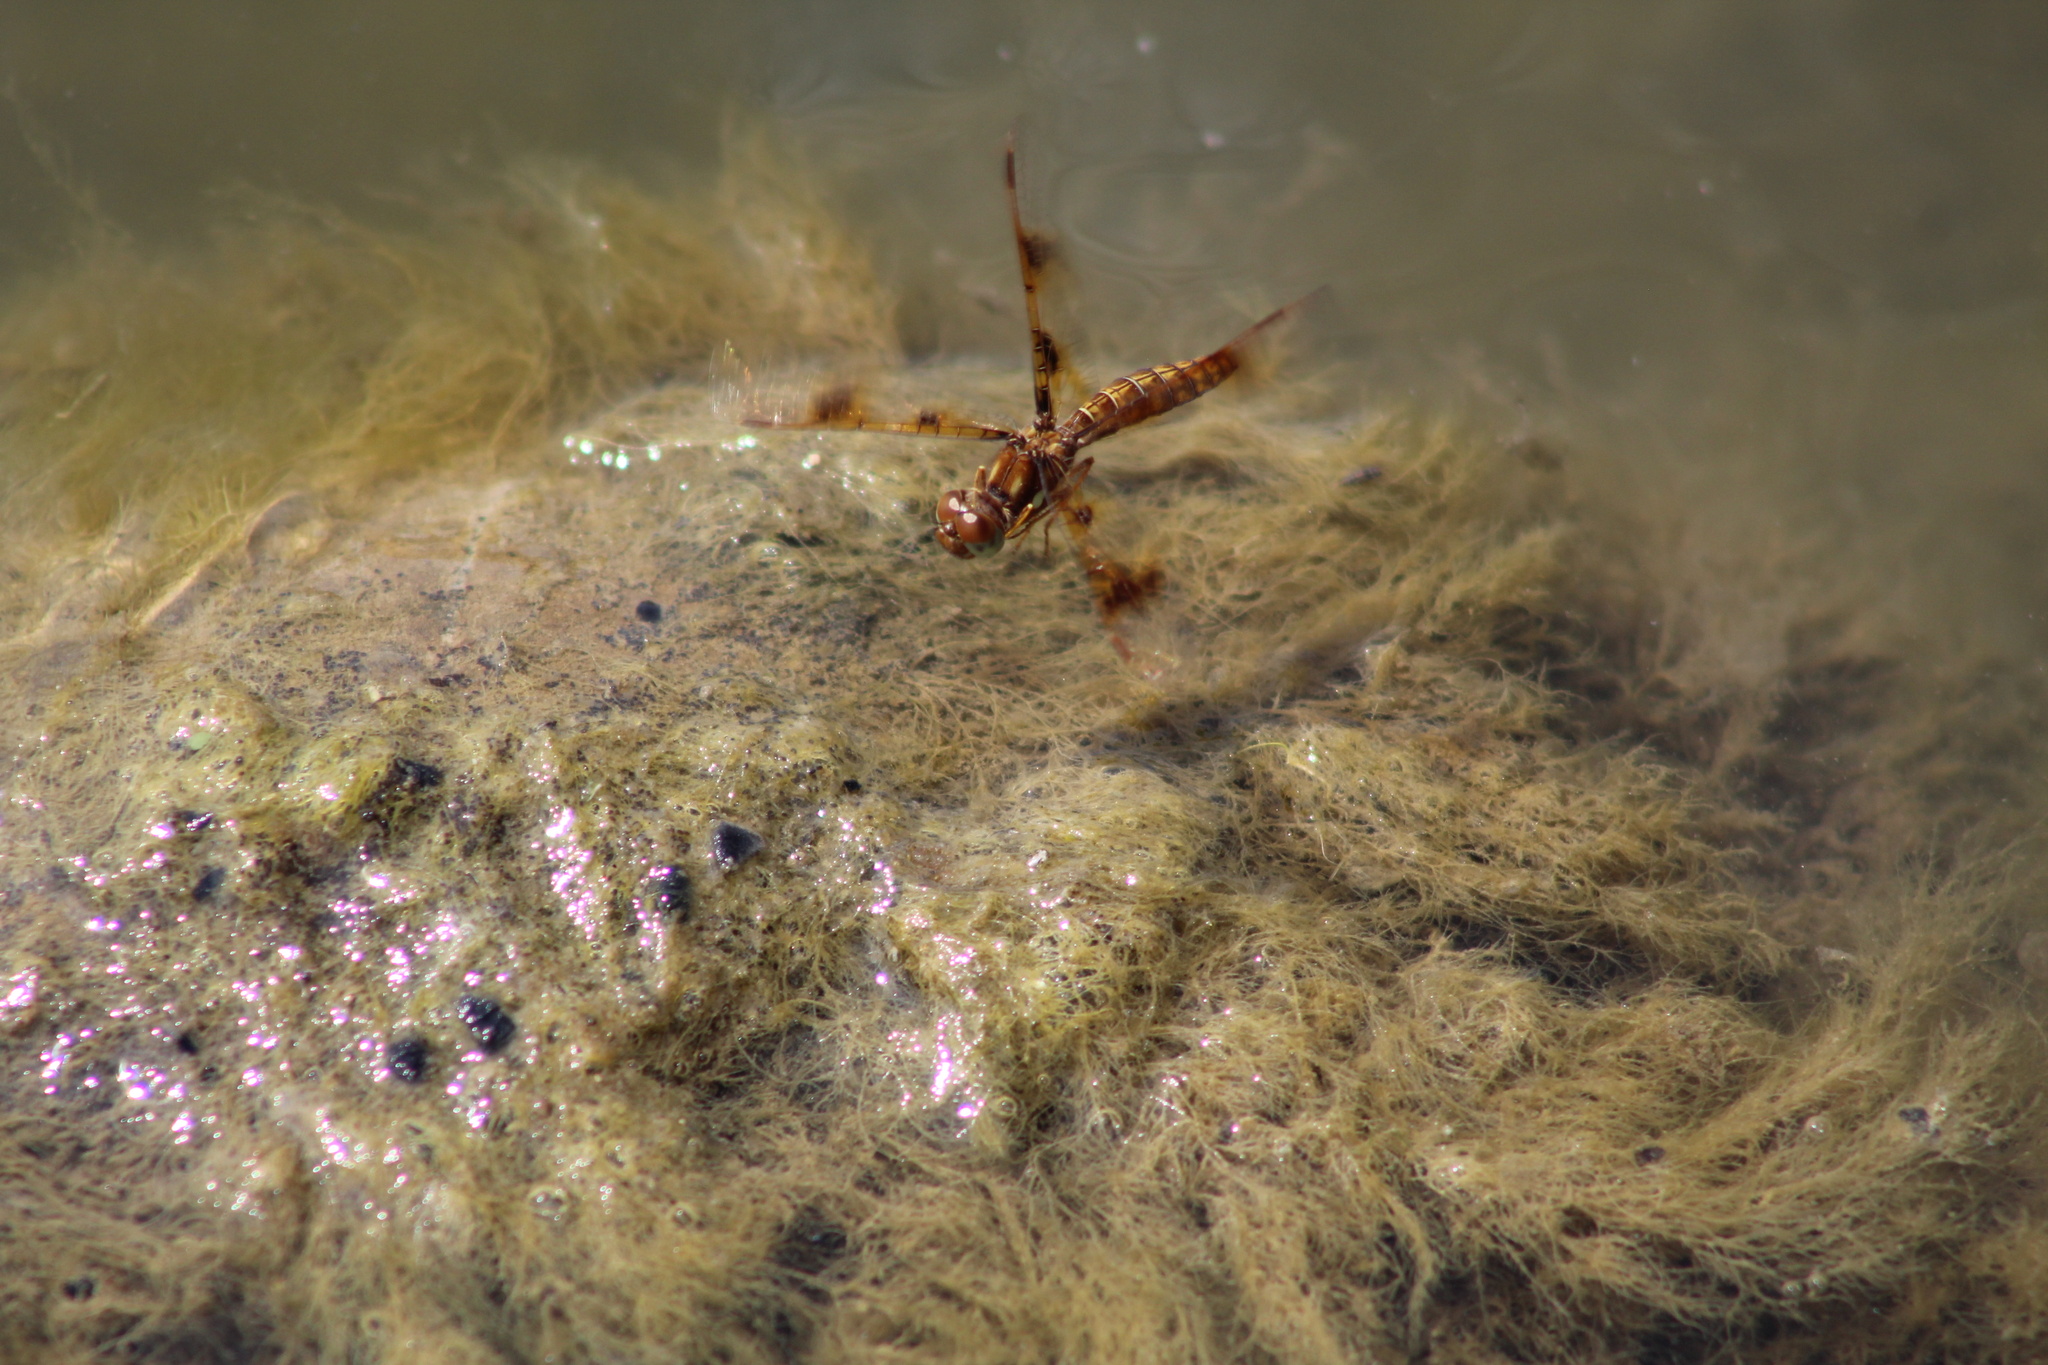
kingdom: Animalia
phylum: Arthropoda
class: Insecta
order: Odonata
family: Libellulidae
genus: Perithemis
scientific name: Perithemis tenera
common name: Eastern amberwing
